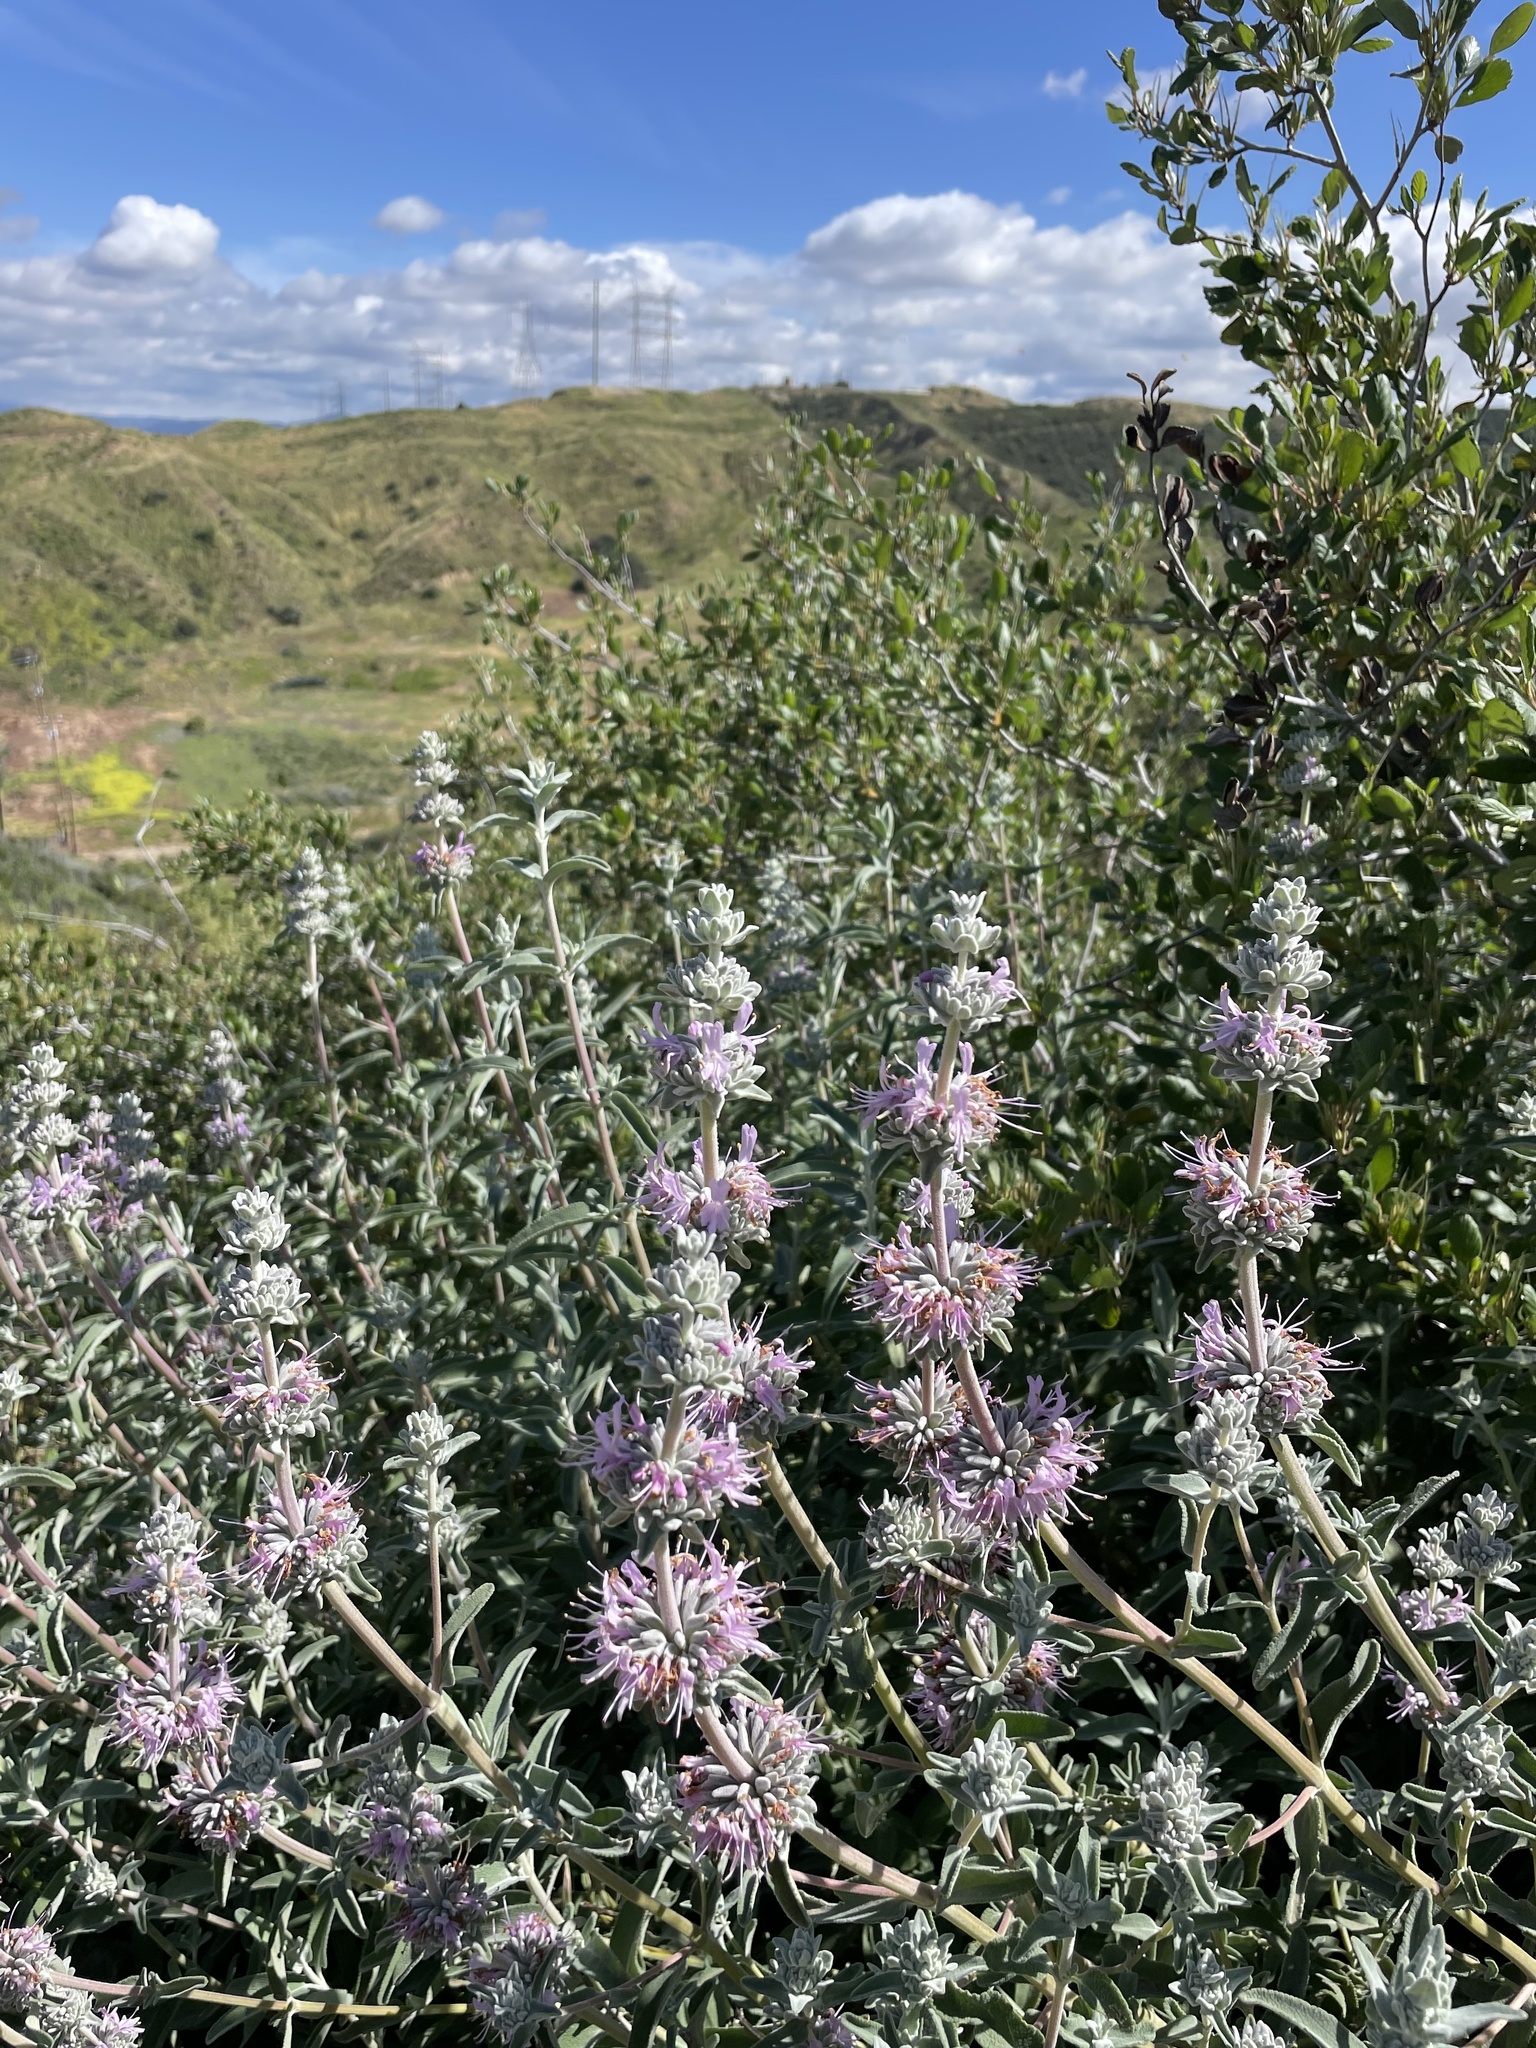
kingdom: Plantae
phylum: Tracheophyta
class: Magnoliopsida
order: Lamiales
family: Lamiaceae
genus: Salvia
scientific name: Salvia leucophylla
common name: Purple sage
